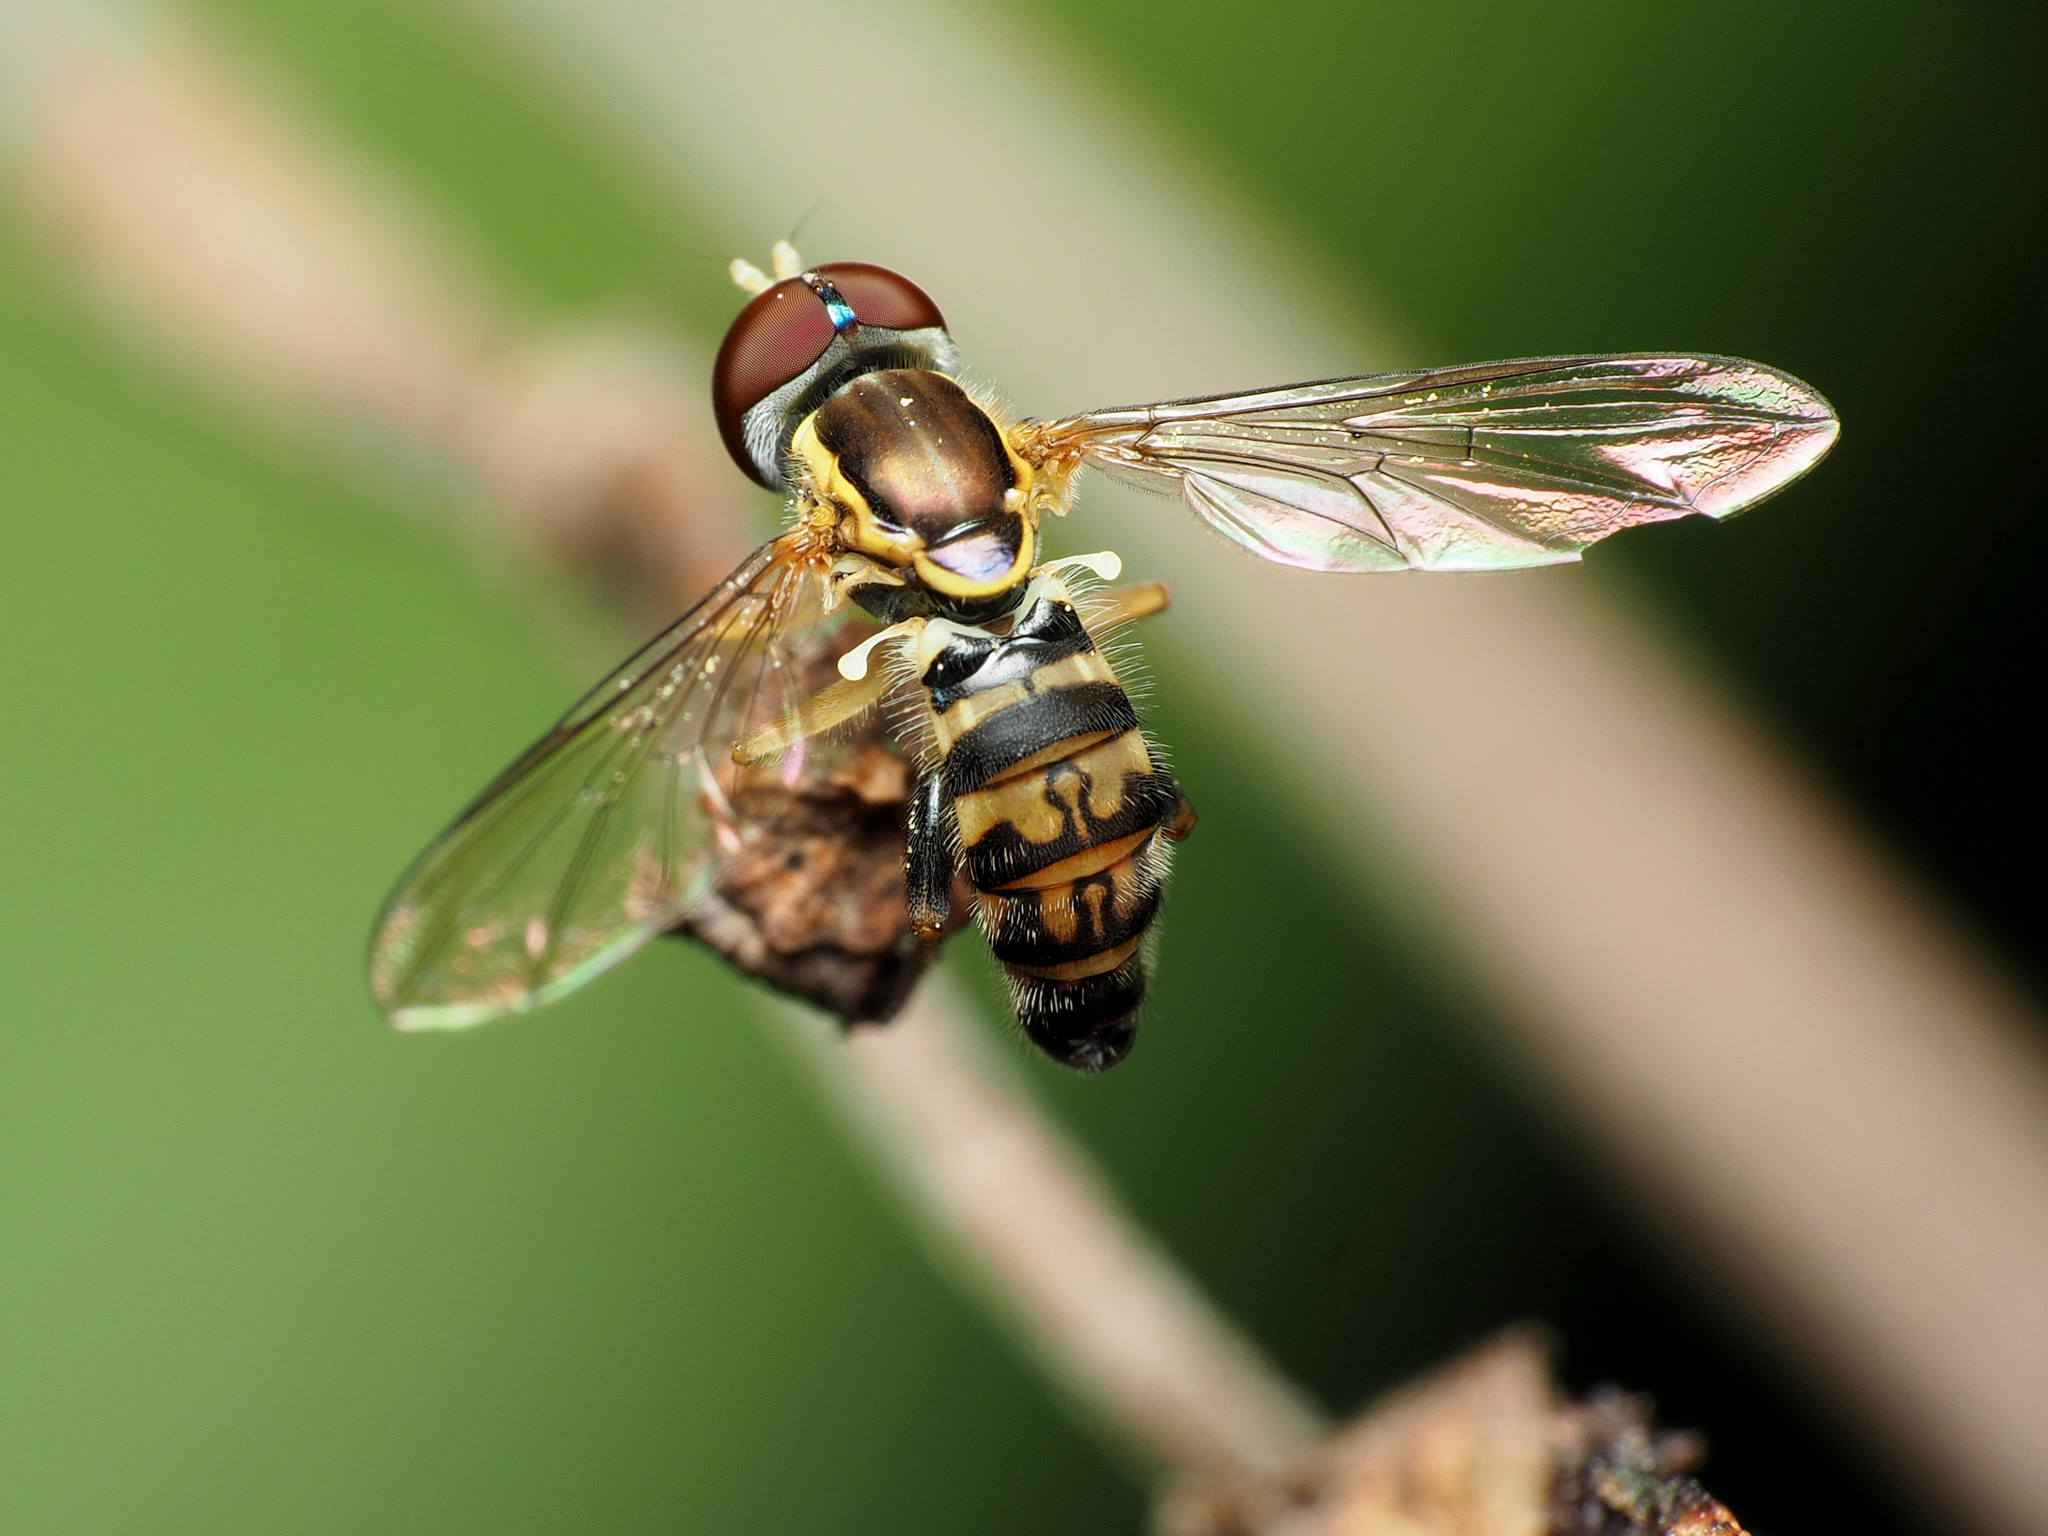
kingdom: Animalia
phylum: Arthropoda
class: Insecta
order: Diptera
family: Syrphidae
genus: Toxomerus
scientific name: Toxomerus geminatus
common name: Eastern calligrapher
